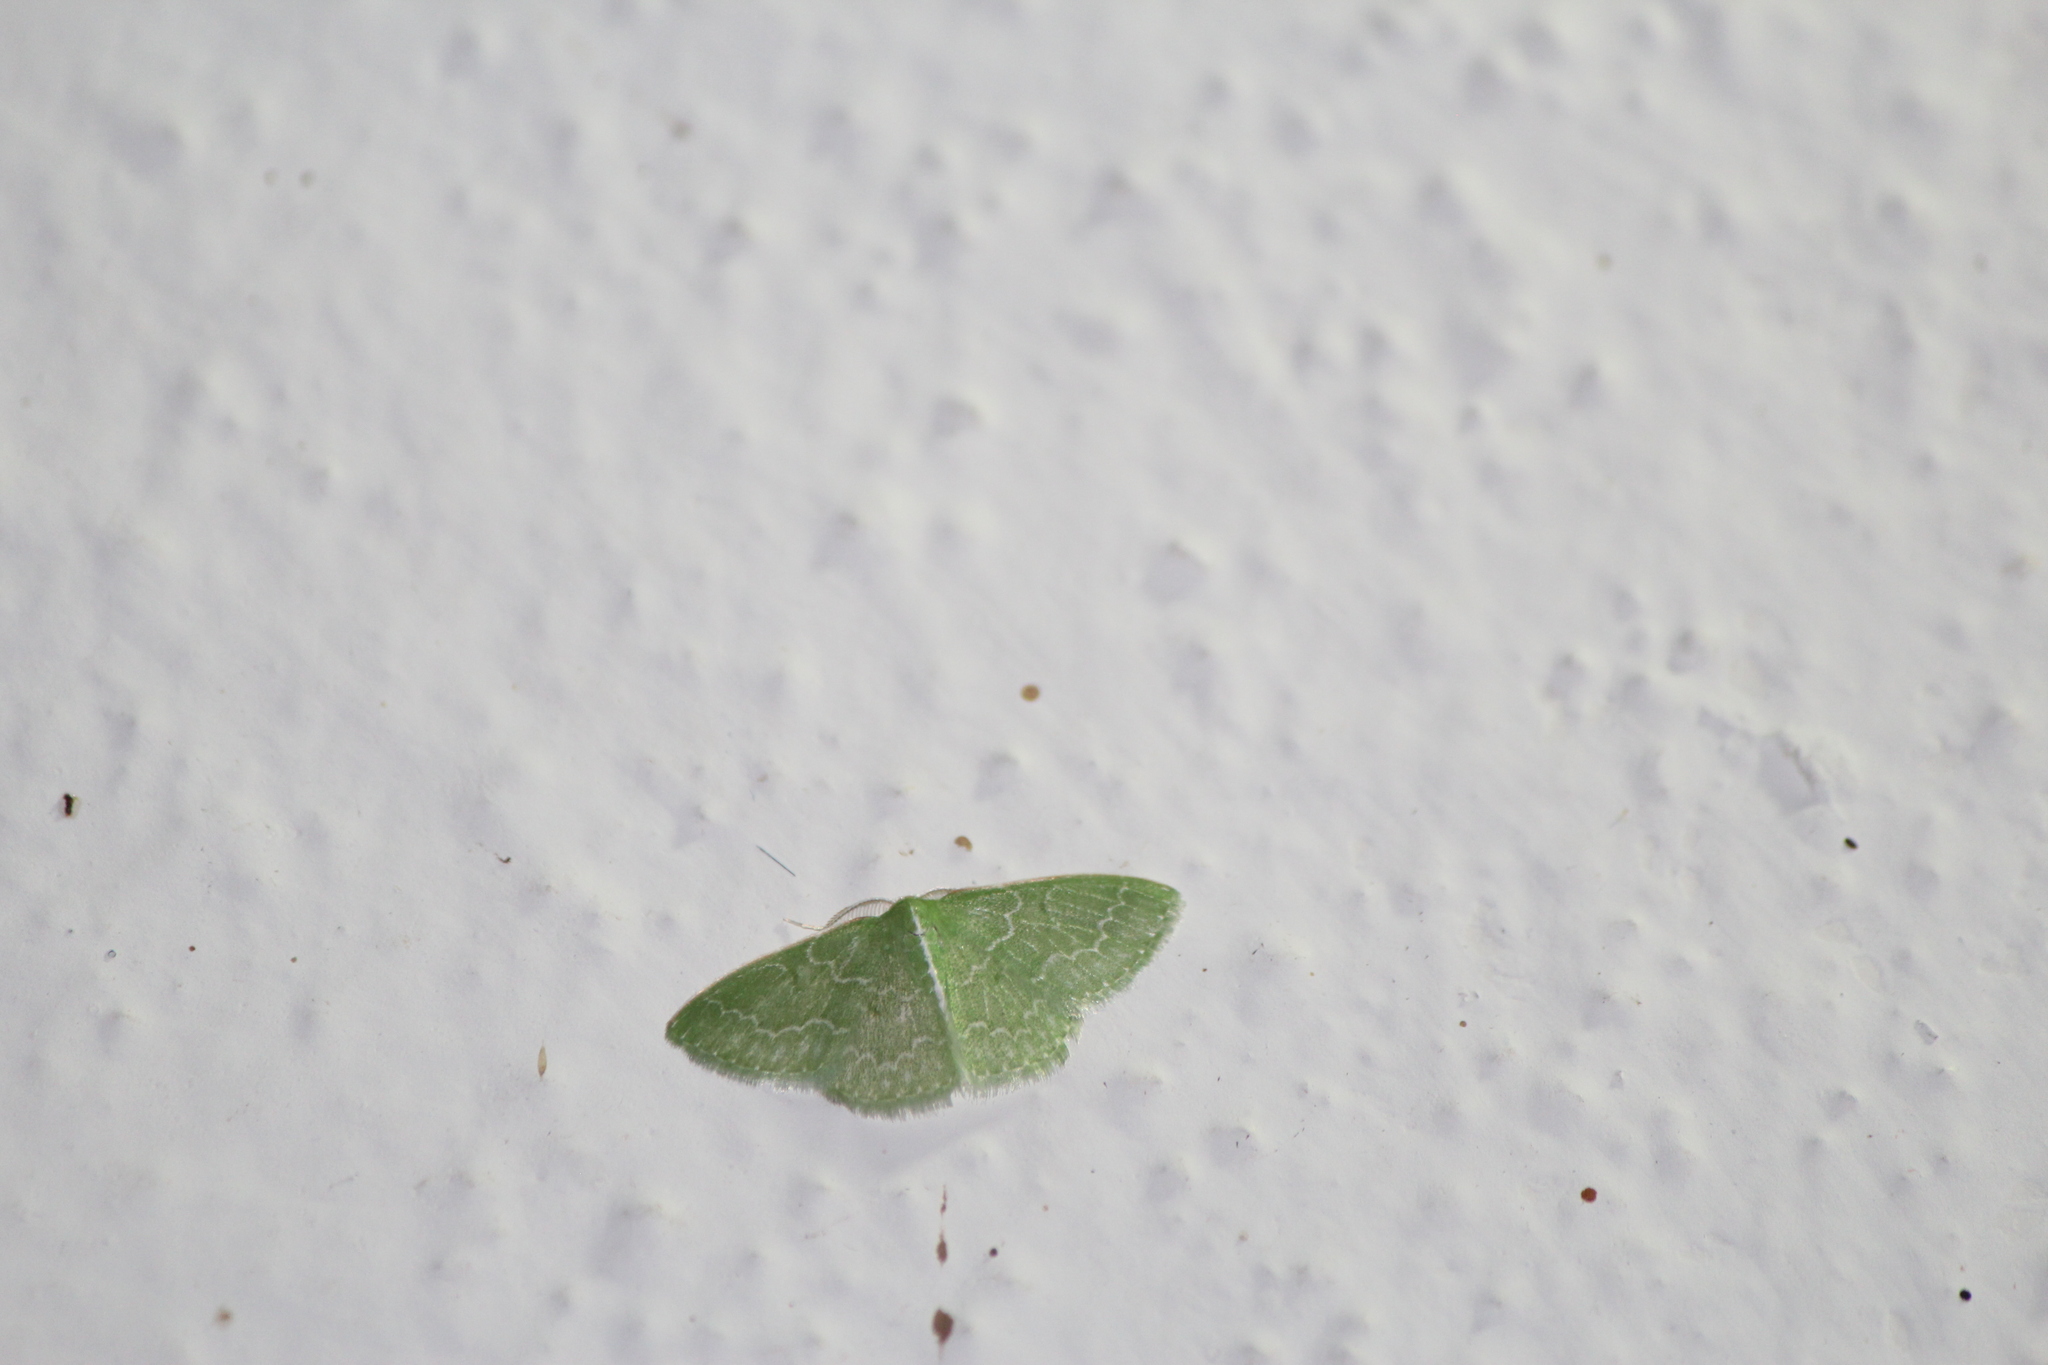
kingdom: Animalia
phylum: Arthropoda
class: Insecta
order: Lepidoptera
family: Geometridae
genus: Synchlora
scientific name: Synchlora frondaria
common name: Southern emerald
